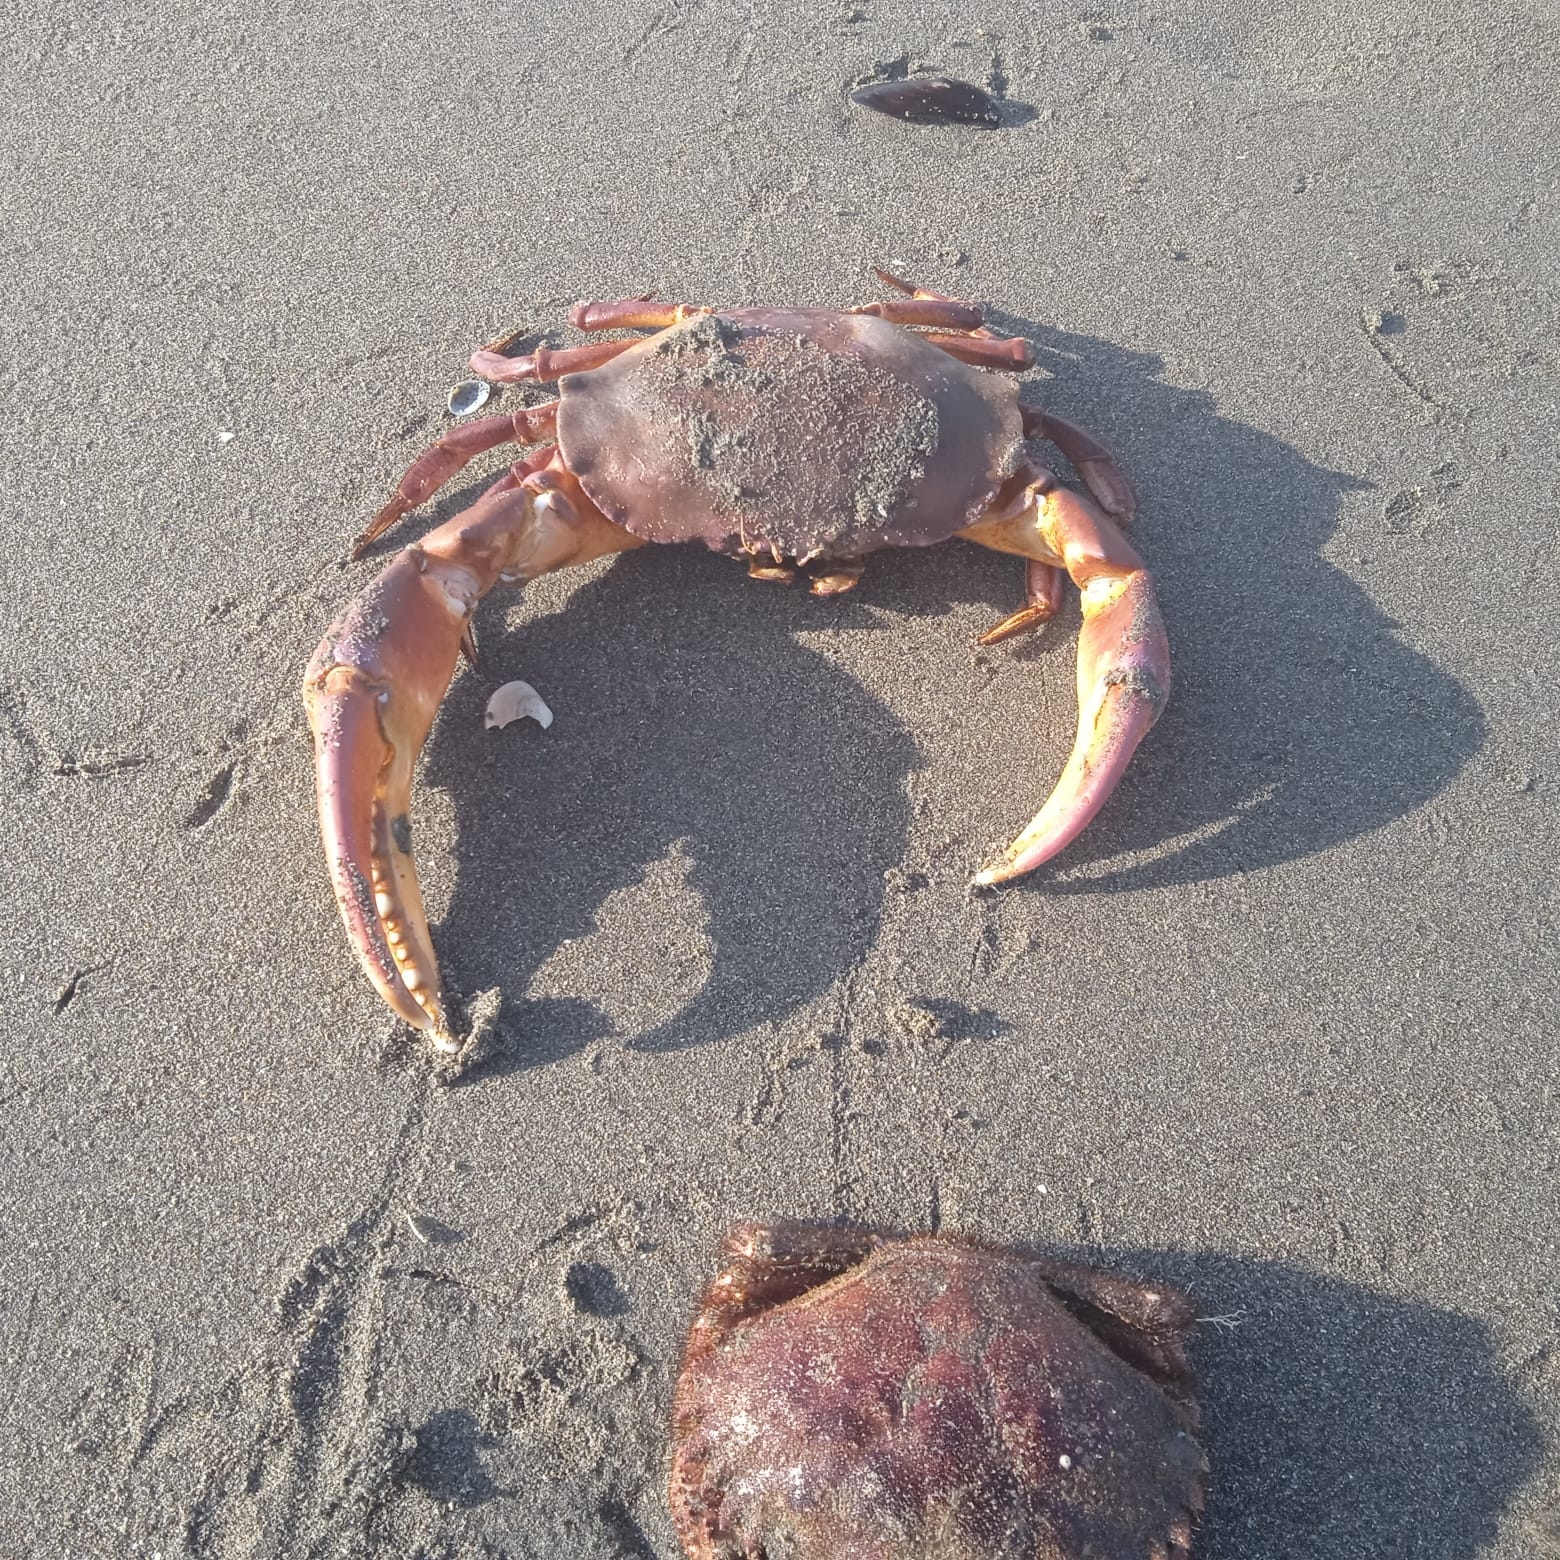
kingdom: Animalia
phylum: Arthropoda
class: Malacostraca
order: Decapoda
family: Platyxanthidae
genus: Peloeus
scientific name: Peloeus armatus
